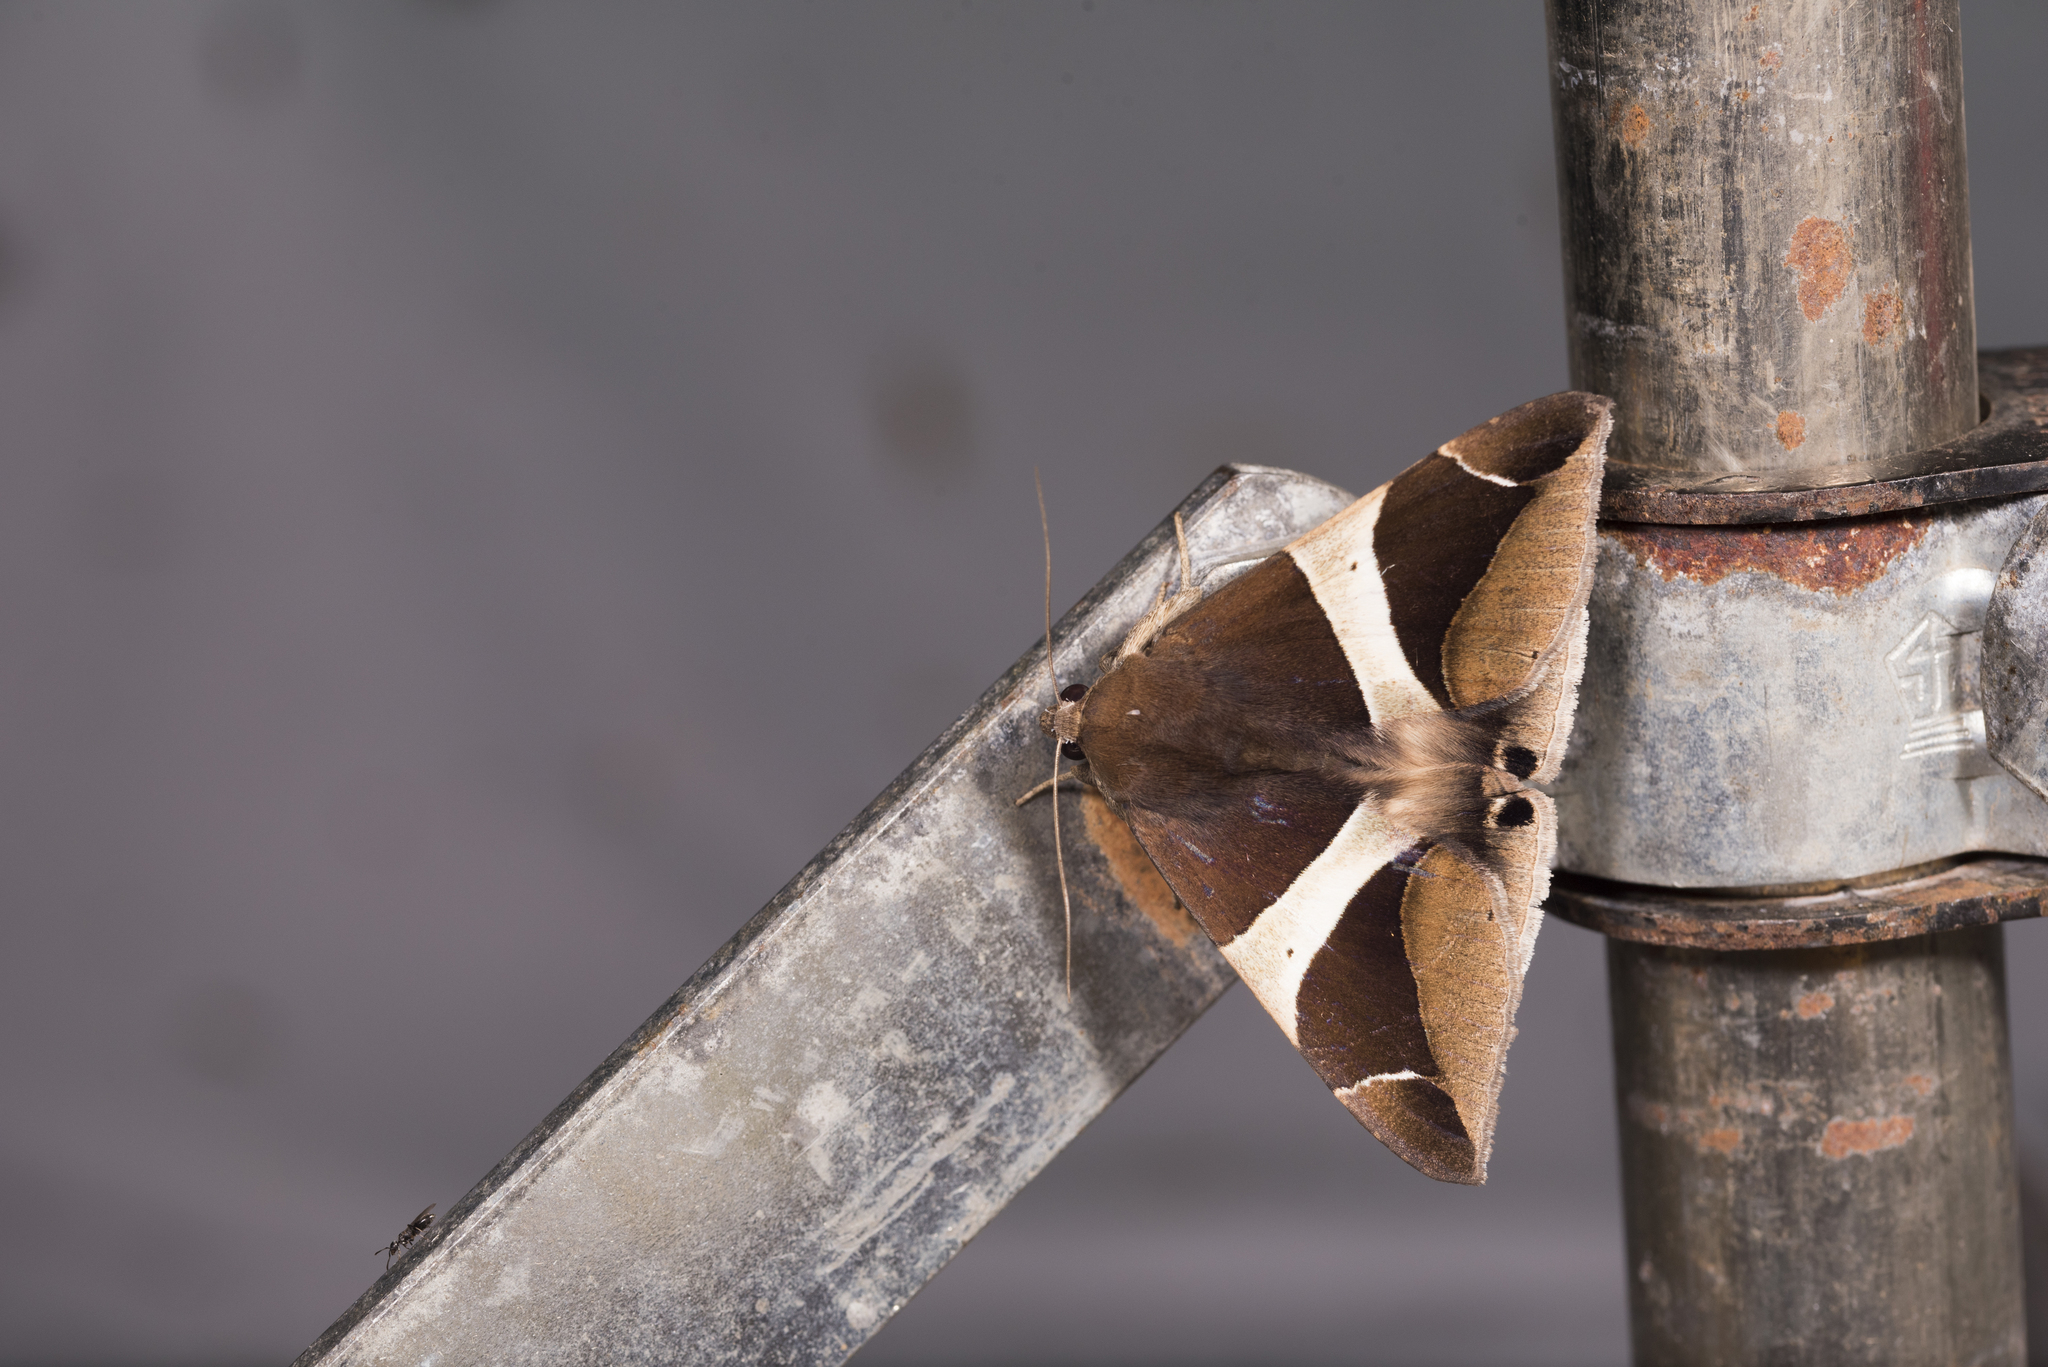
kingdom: Animalia
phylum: Arthropoda
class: Insecta
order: Lepidoptera
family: Erebidae
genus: Dysgonia
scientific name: Dysgonia praetermissa
